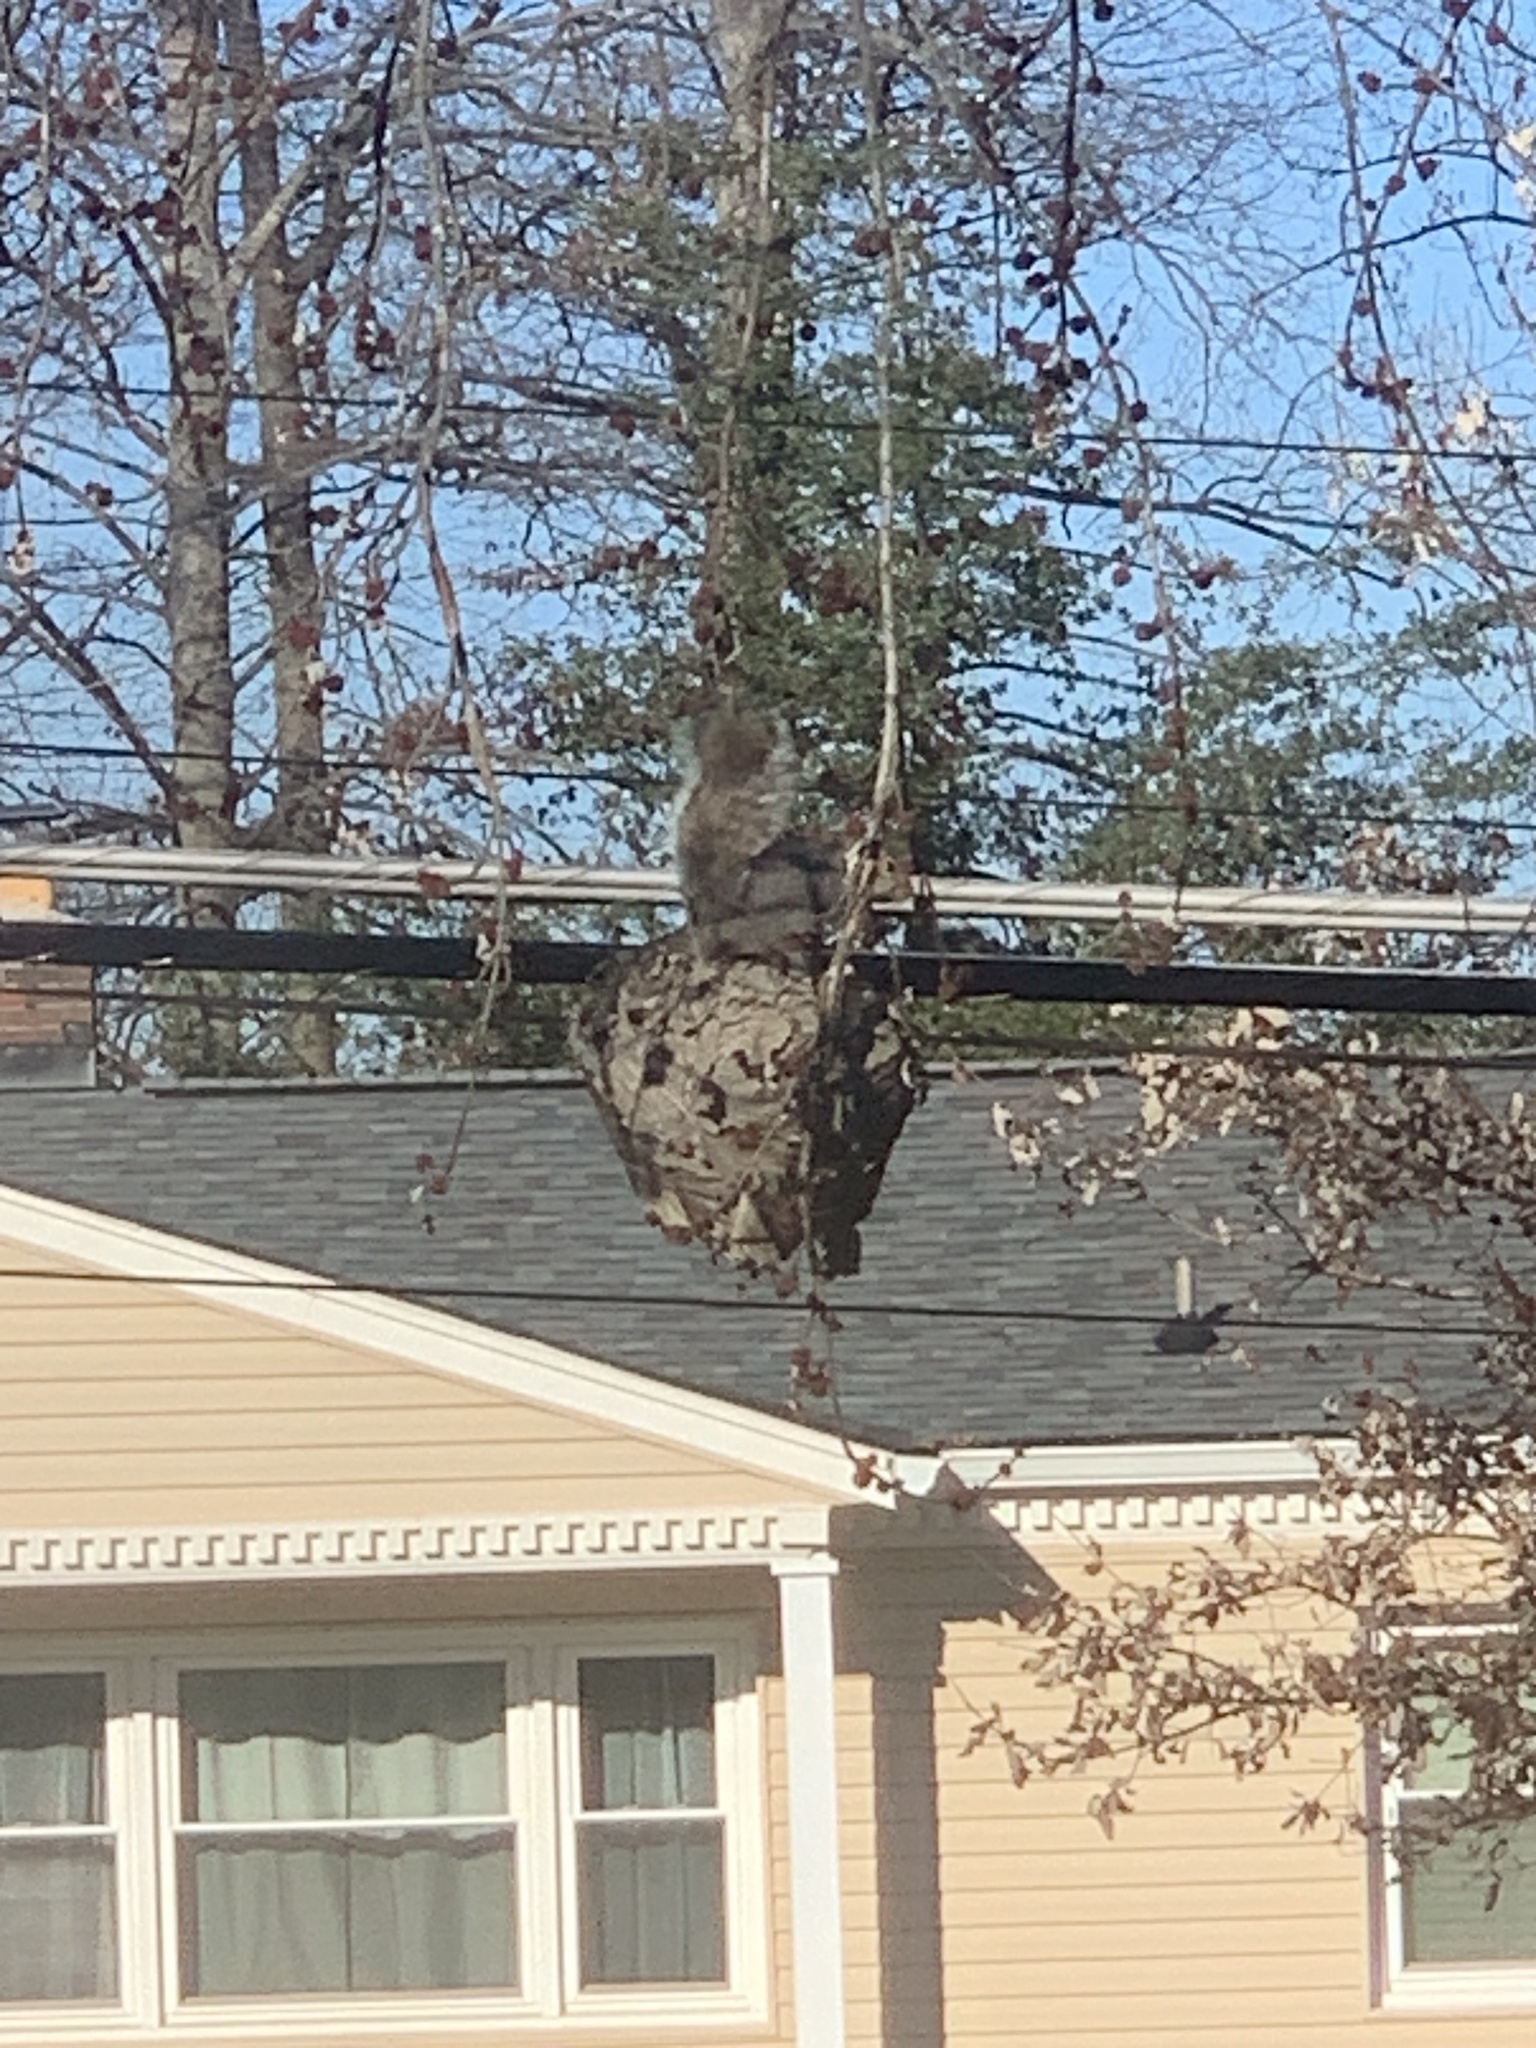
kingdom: Animalia
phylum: Chordata
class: Mammalia
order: Rodentia
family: Sciuridae
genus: Sciurus
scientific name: Sciurus carolinensis
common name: Eastern gray squirrel
